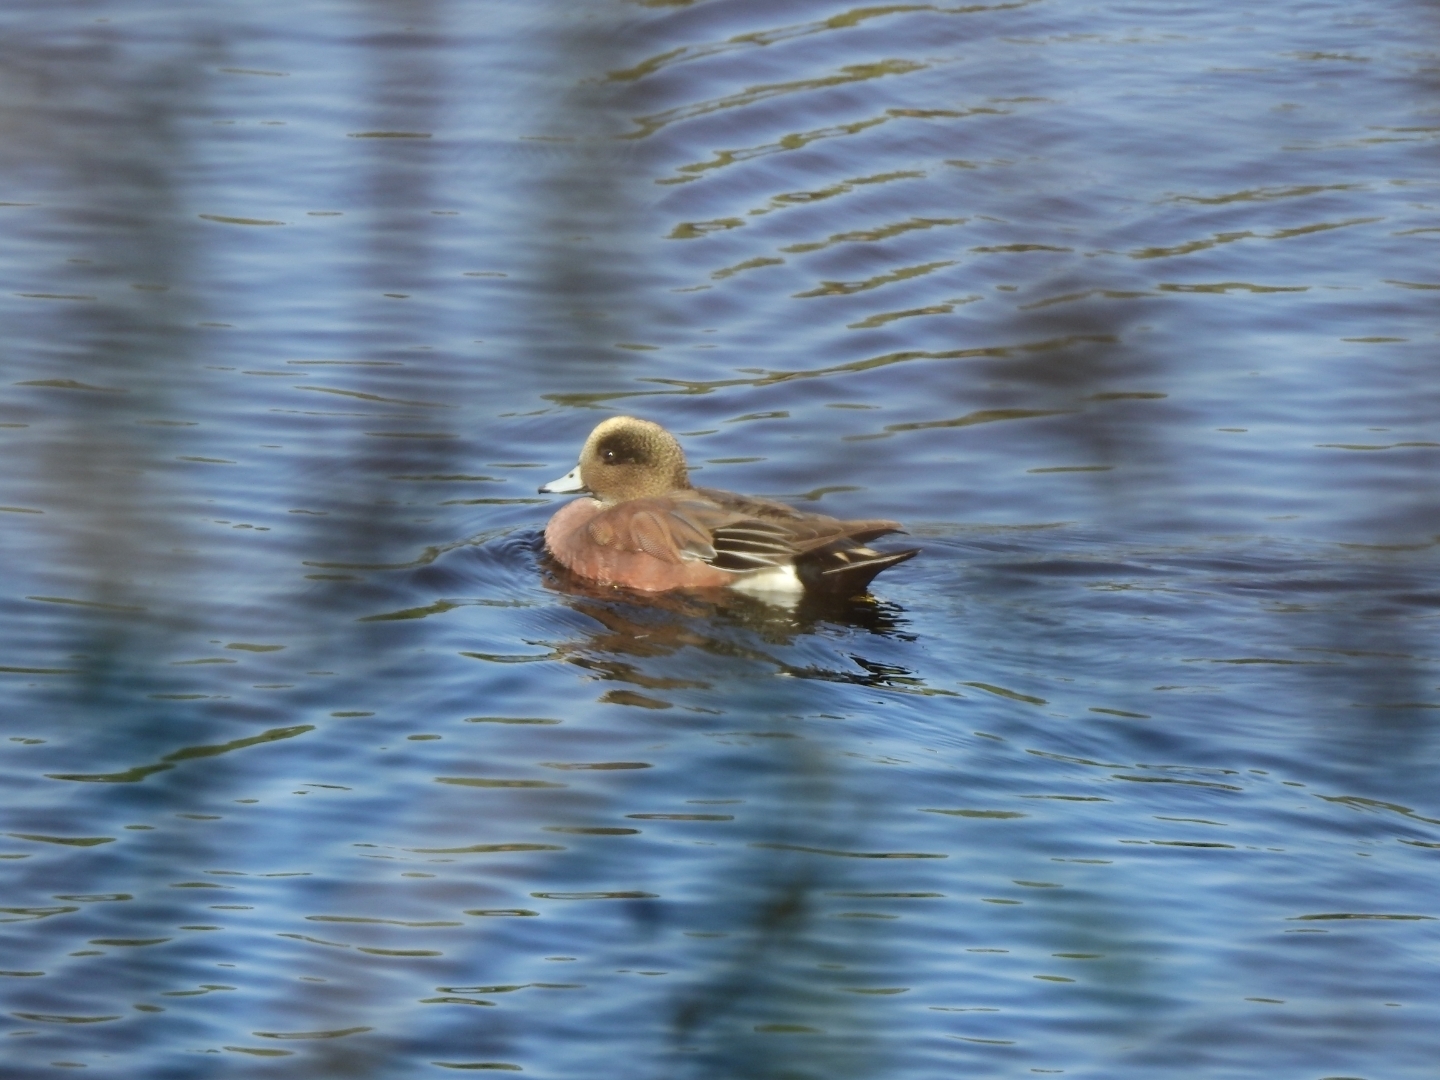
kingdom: Animalia
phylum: Chordata
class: Aves
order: Anseriformes
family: Anatidae
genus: Mareca
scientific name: Mareca americana
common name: American wigeon
